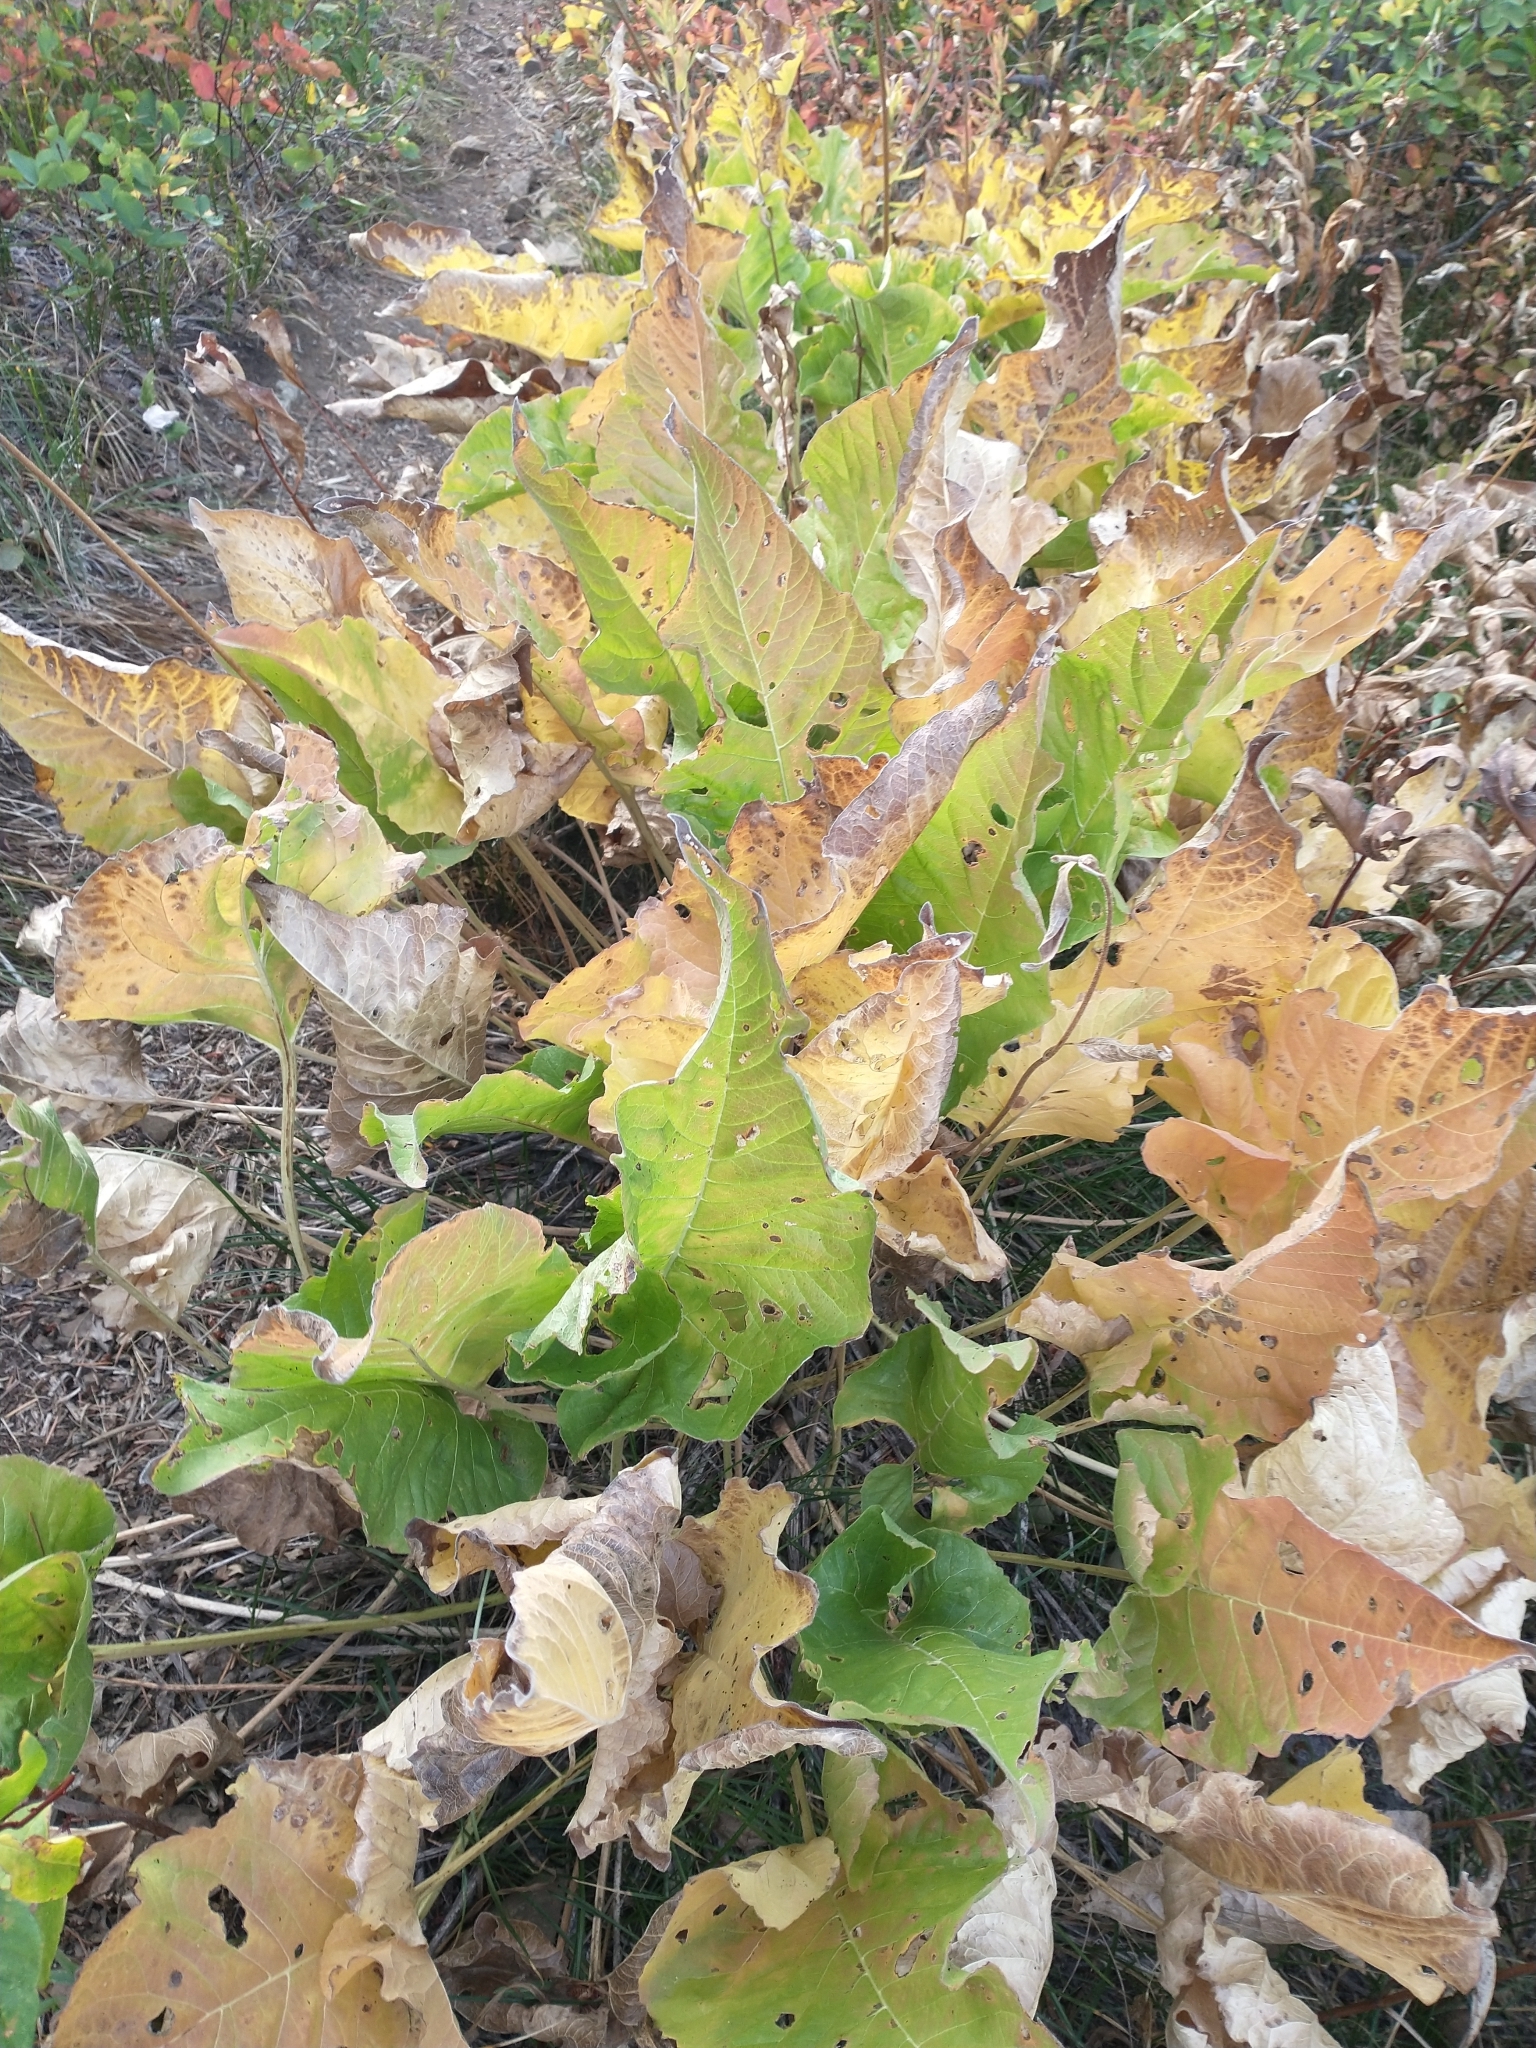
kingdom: Plantae
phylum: Tracheophyta
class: Magnoliopsida
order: Asterales
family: Asteraceae
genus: Balsamorhiza
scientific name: Balsamorhiza careyana
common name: Carey's balsamroot
